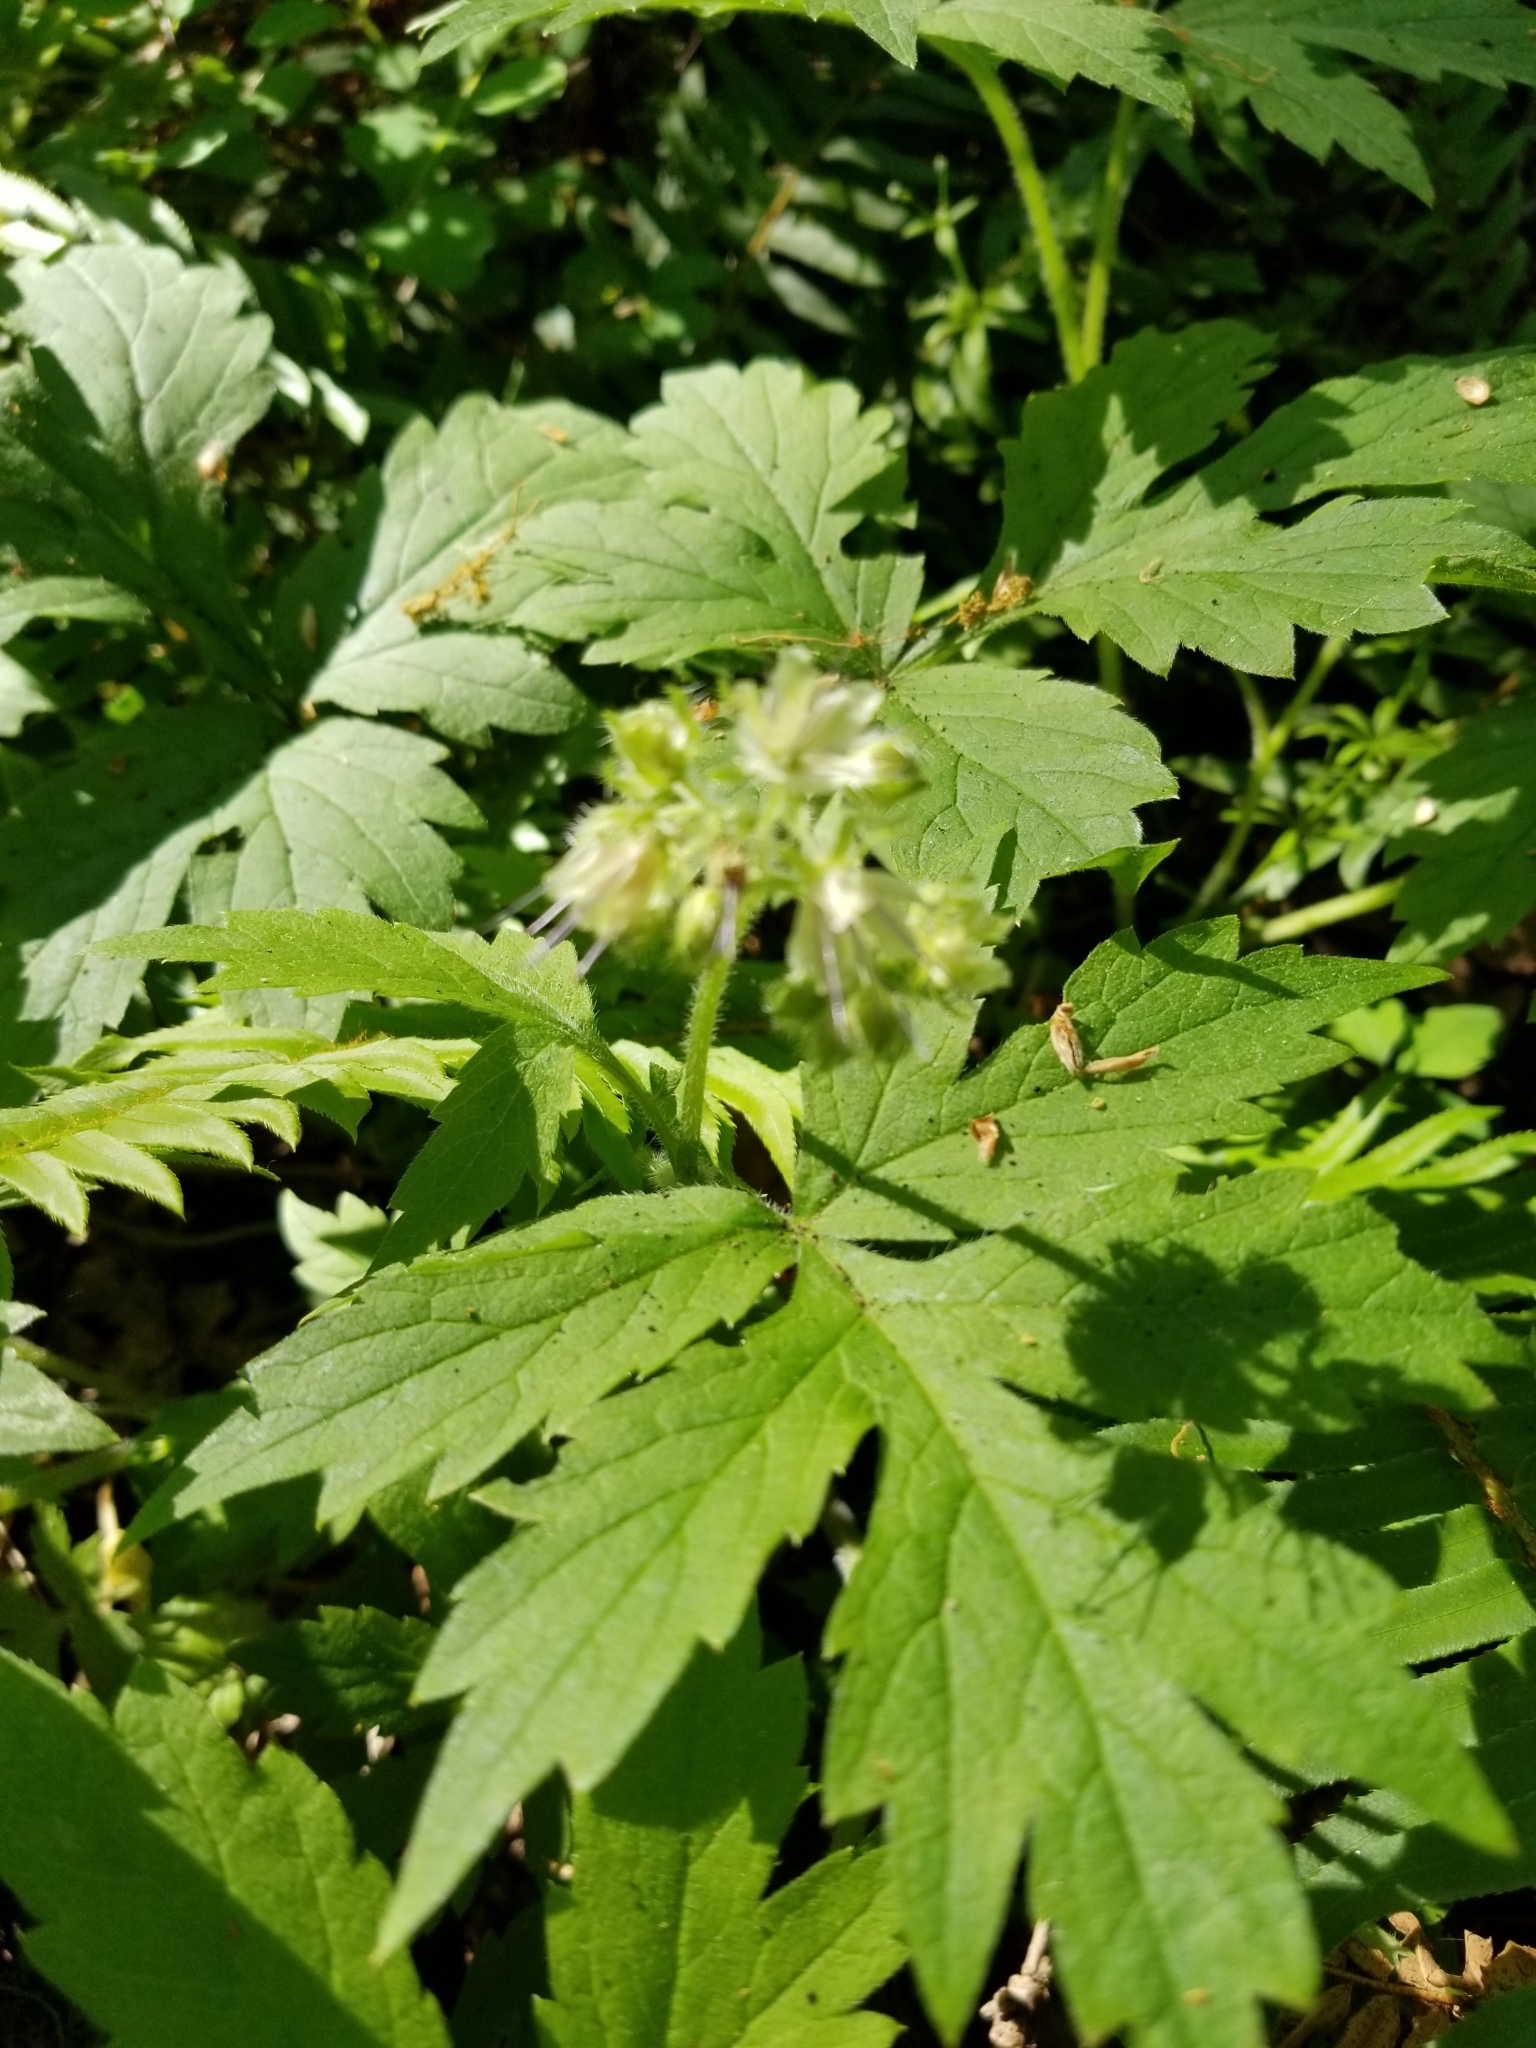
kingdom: Plantae
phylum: Tracheophyta
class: Magnoliopsida
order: Boraginales
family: Hydrophyllaceae
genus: Hydrophyllum
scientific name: Hydrophyllum tenuipes
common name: Pacific waterleaf
